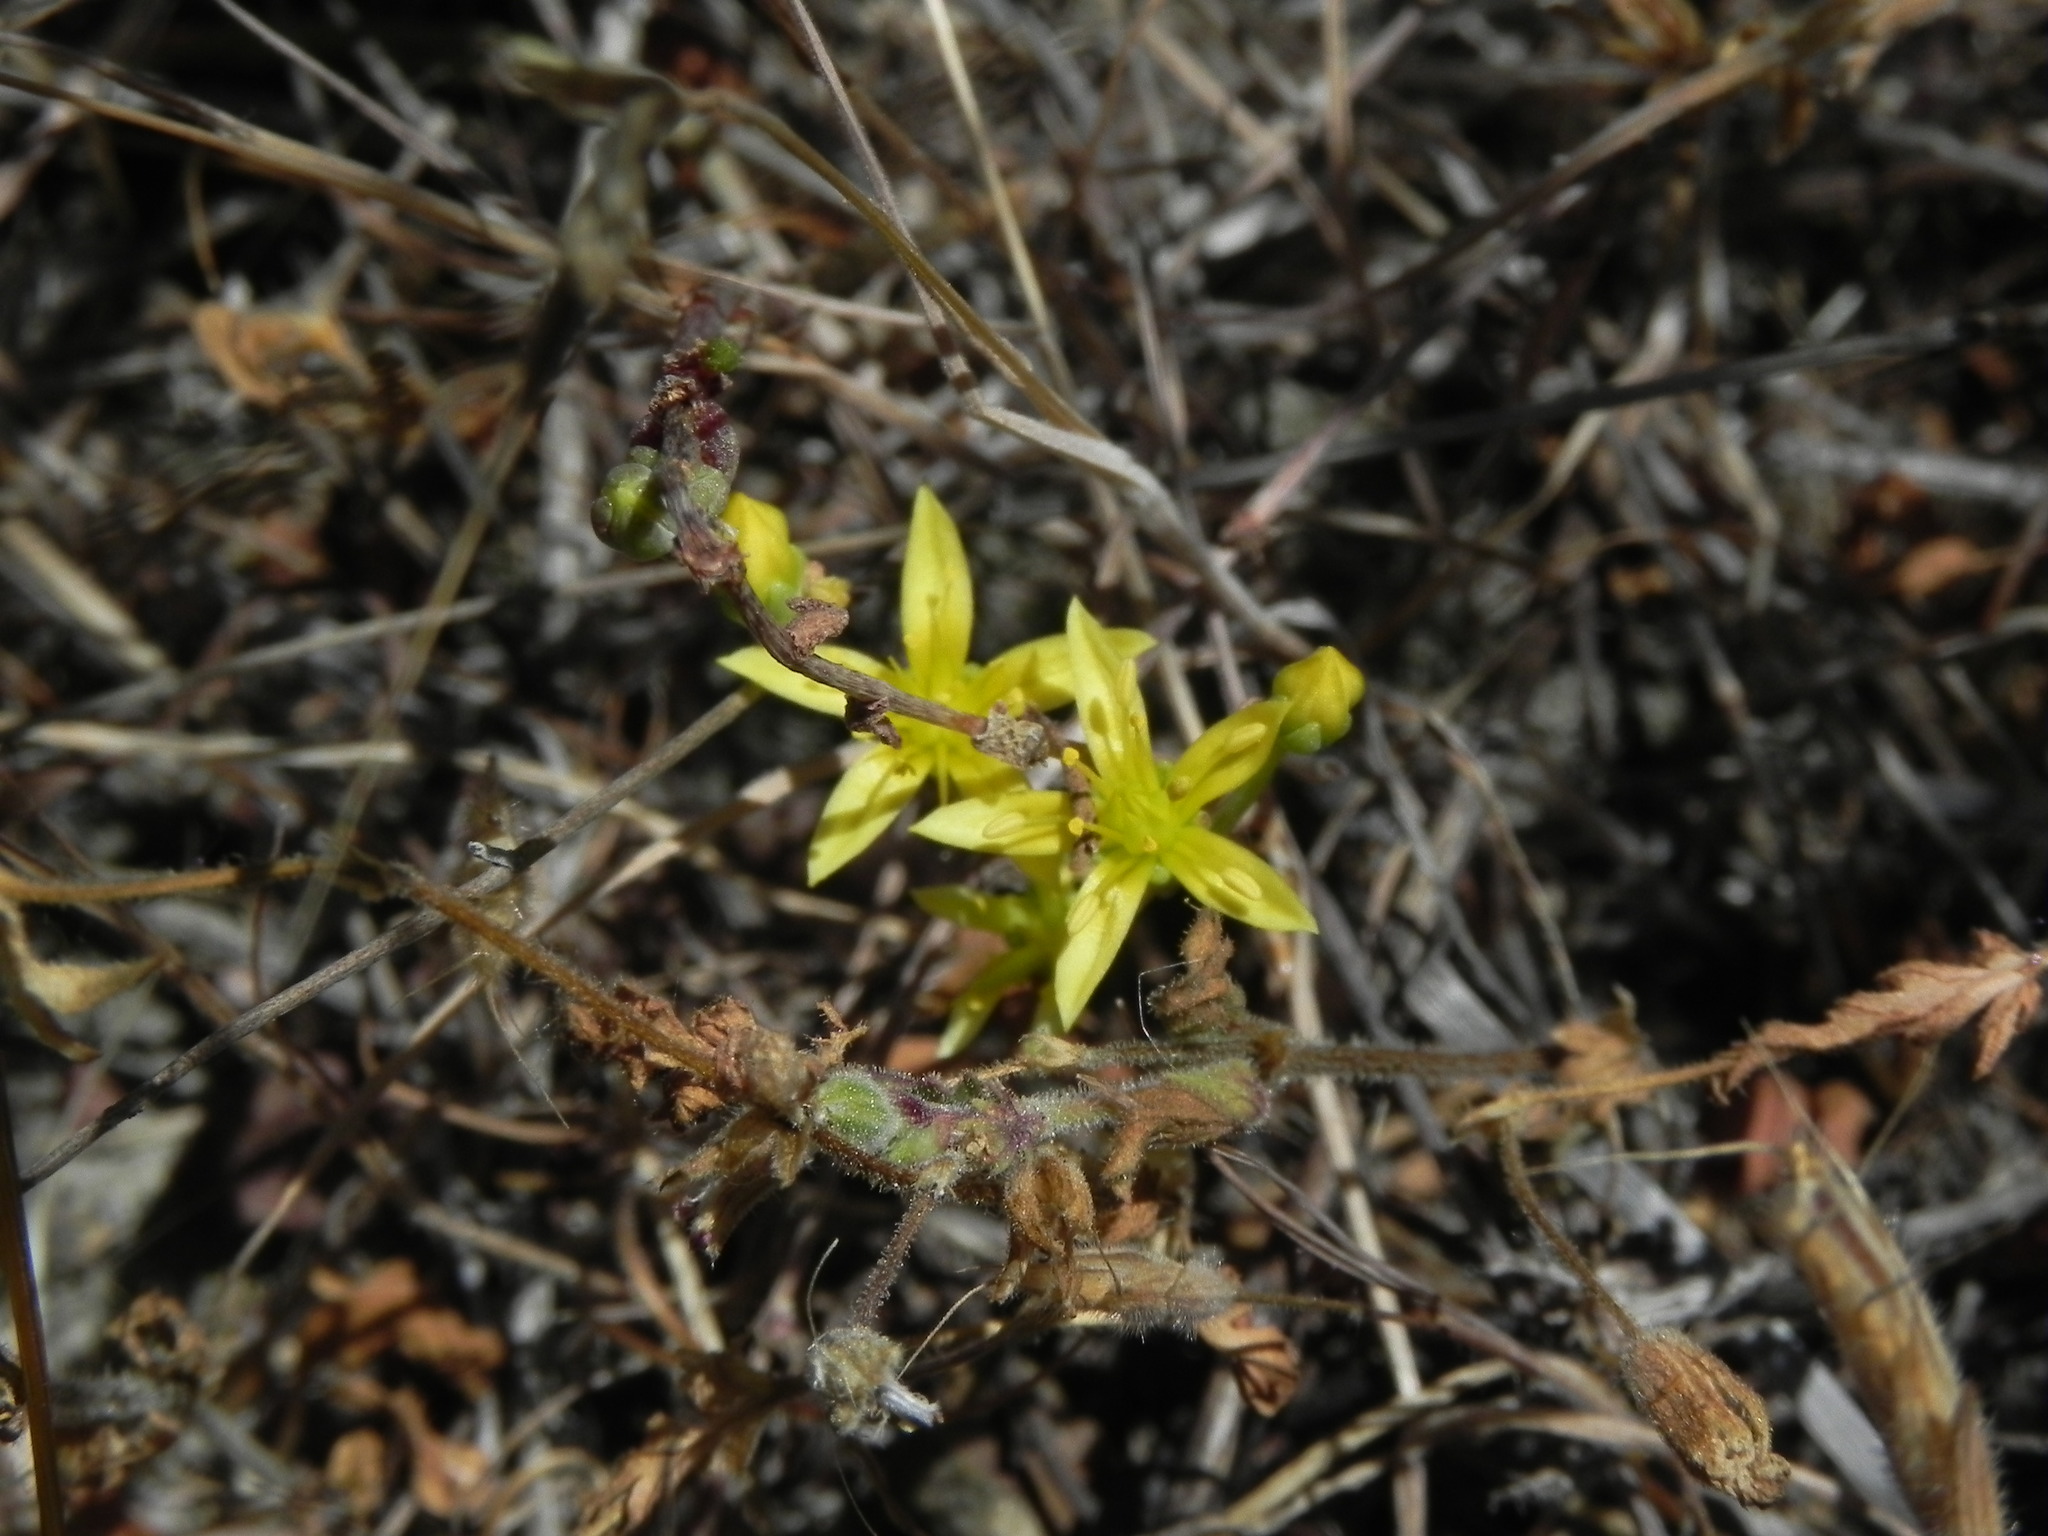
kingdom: Plantae
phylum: Tracheophyta
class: Magnoliopsida
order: Saxifragales
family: Crassulaceae
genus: Dudleya
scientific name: Dudleya variegata
